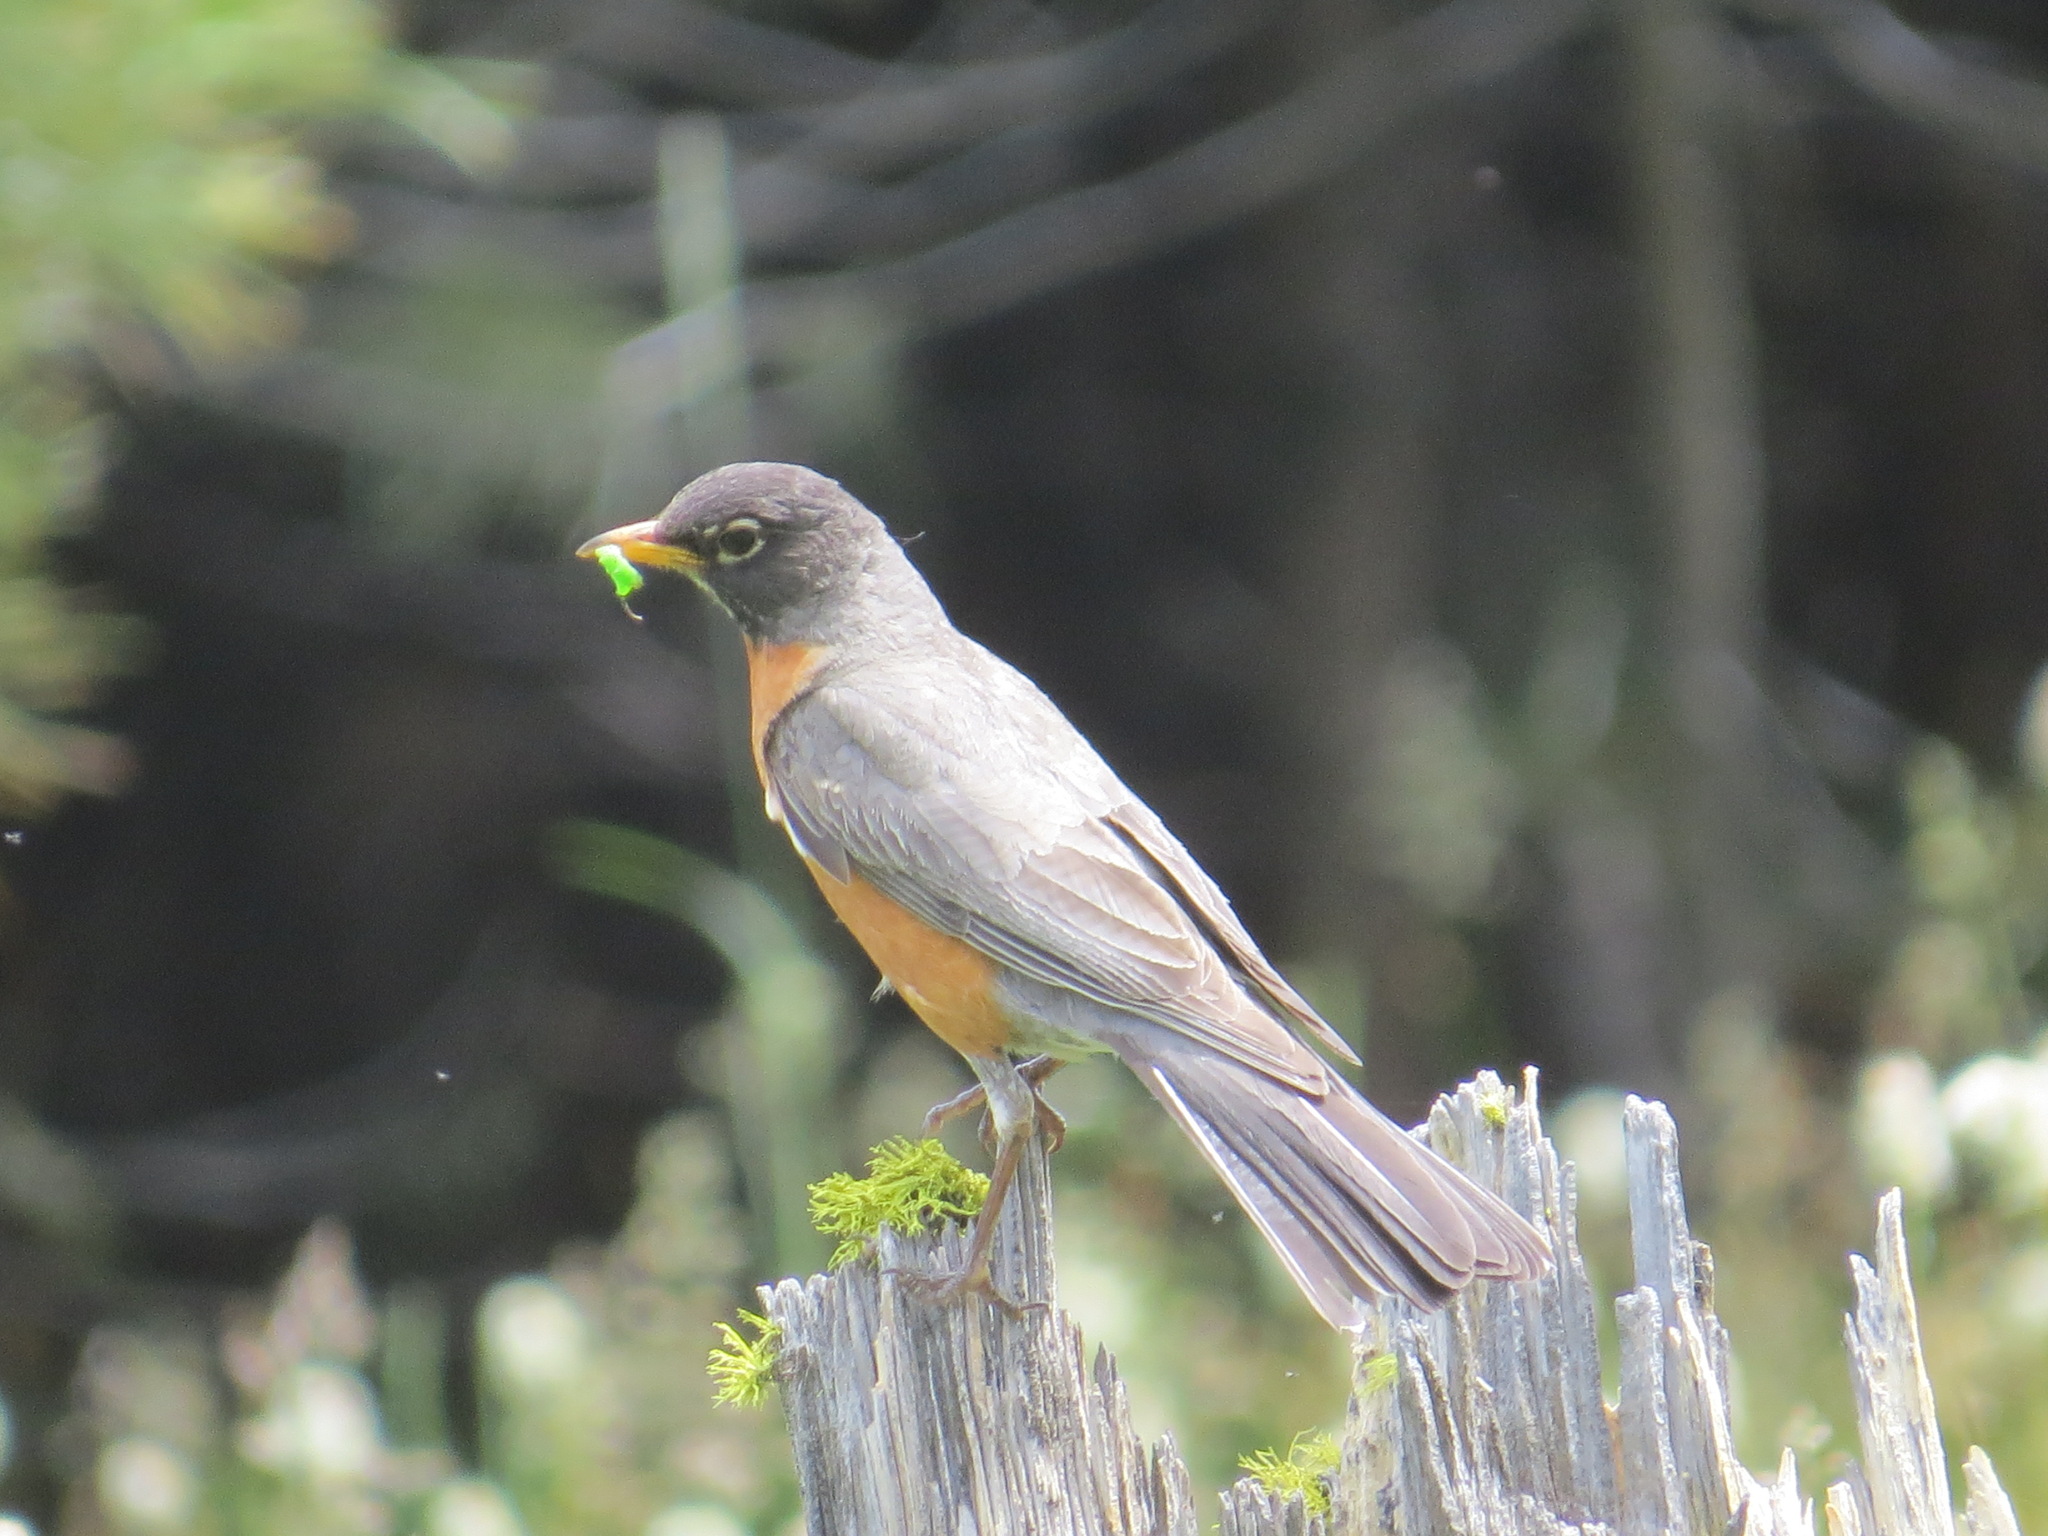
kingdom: Animalia
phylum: Chordata
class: Aves
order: Passeriformes
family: Turdidae
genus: Turdus
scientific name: Turdus migratorius
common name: American robin
